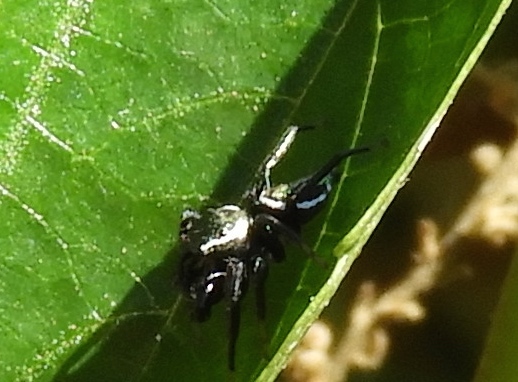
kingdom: Animalia
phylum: Arthropoda
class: Arachnida
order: Araneae
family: Salticidae
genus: Messua
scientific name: Messua limbata
